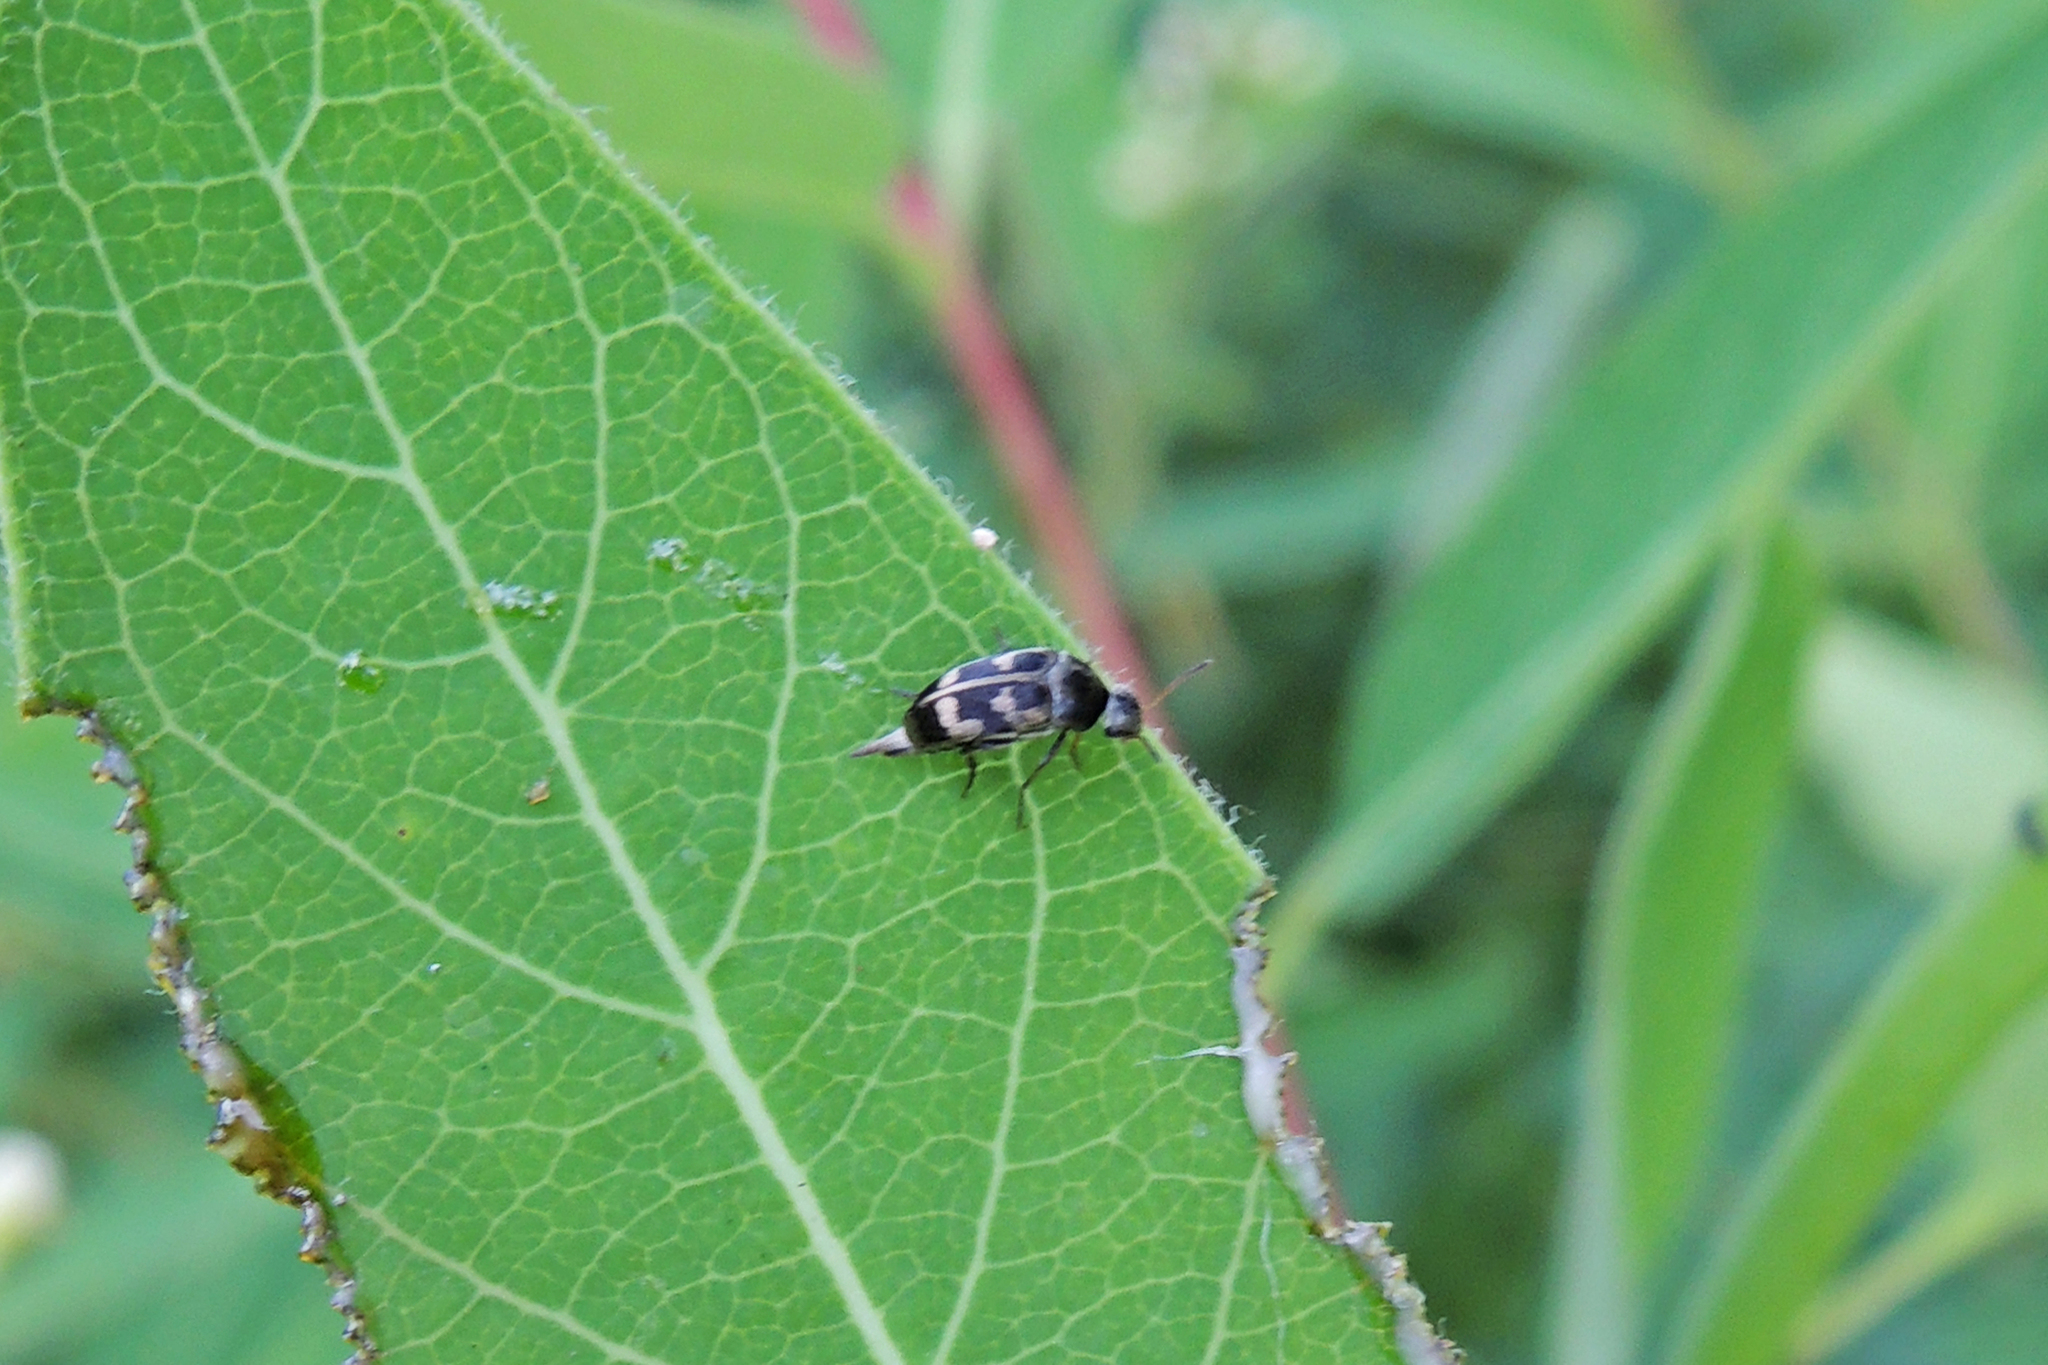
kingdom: Animalia
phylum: Arthropoda
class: Insecta
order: Coleoptera
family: Mordellidae
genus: Falsomordellistena
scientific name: Falsomordellistena pubescens
